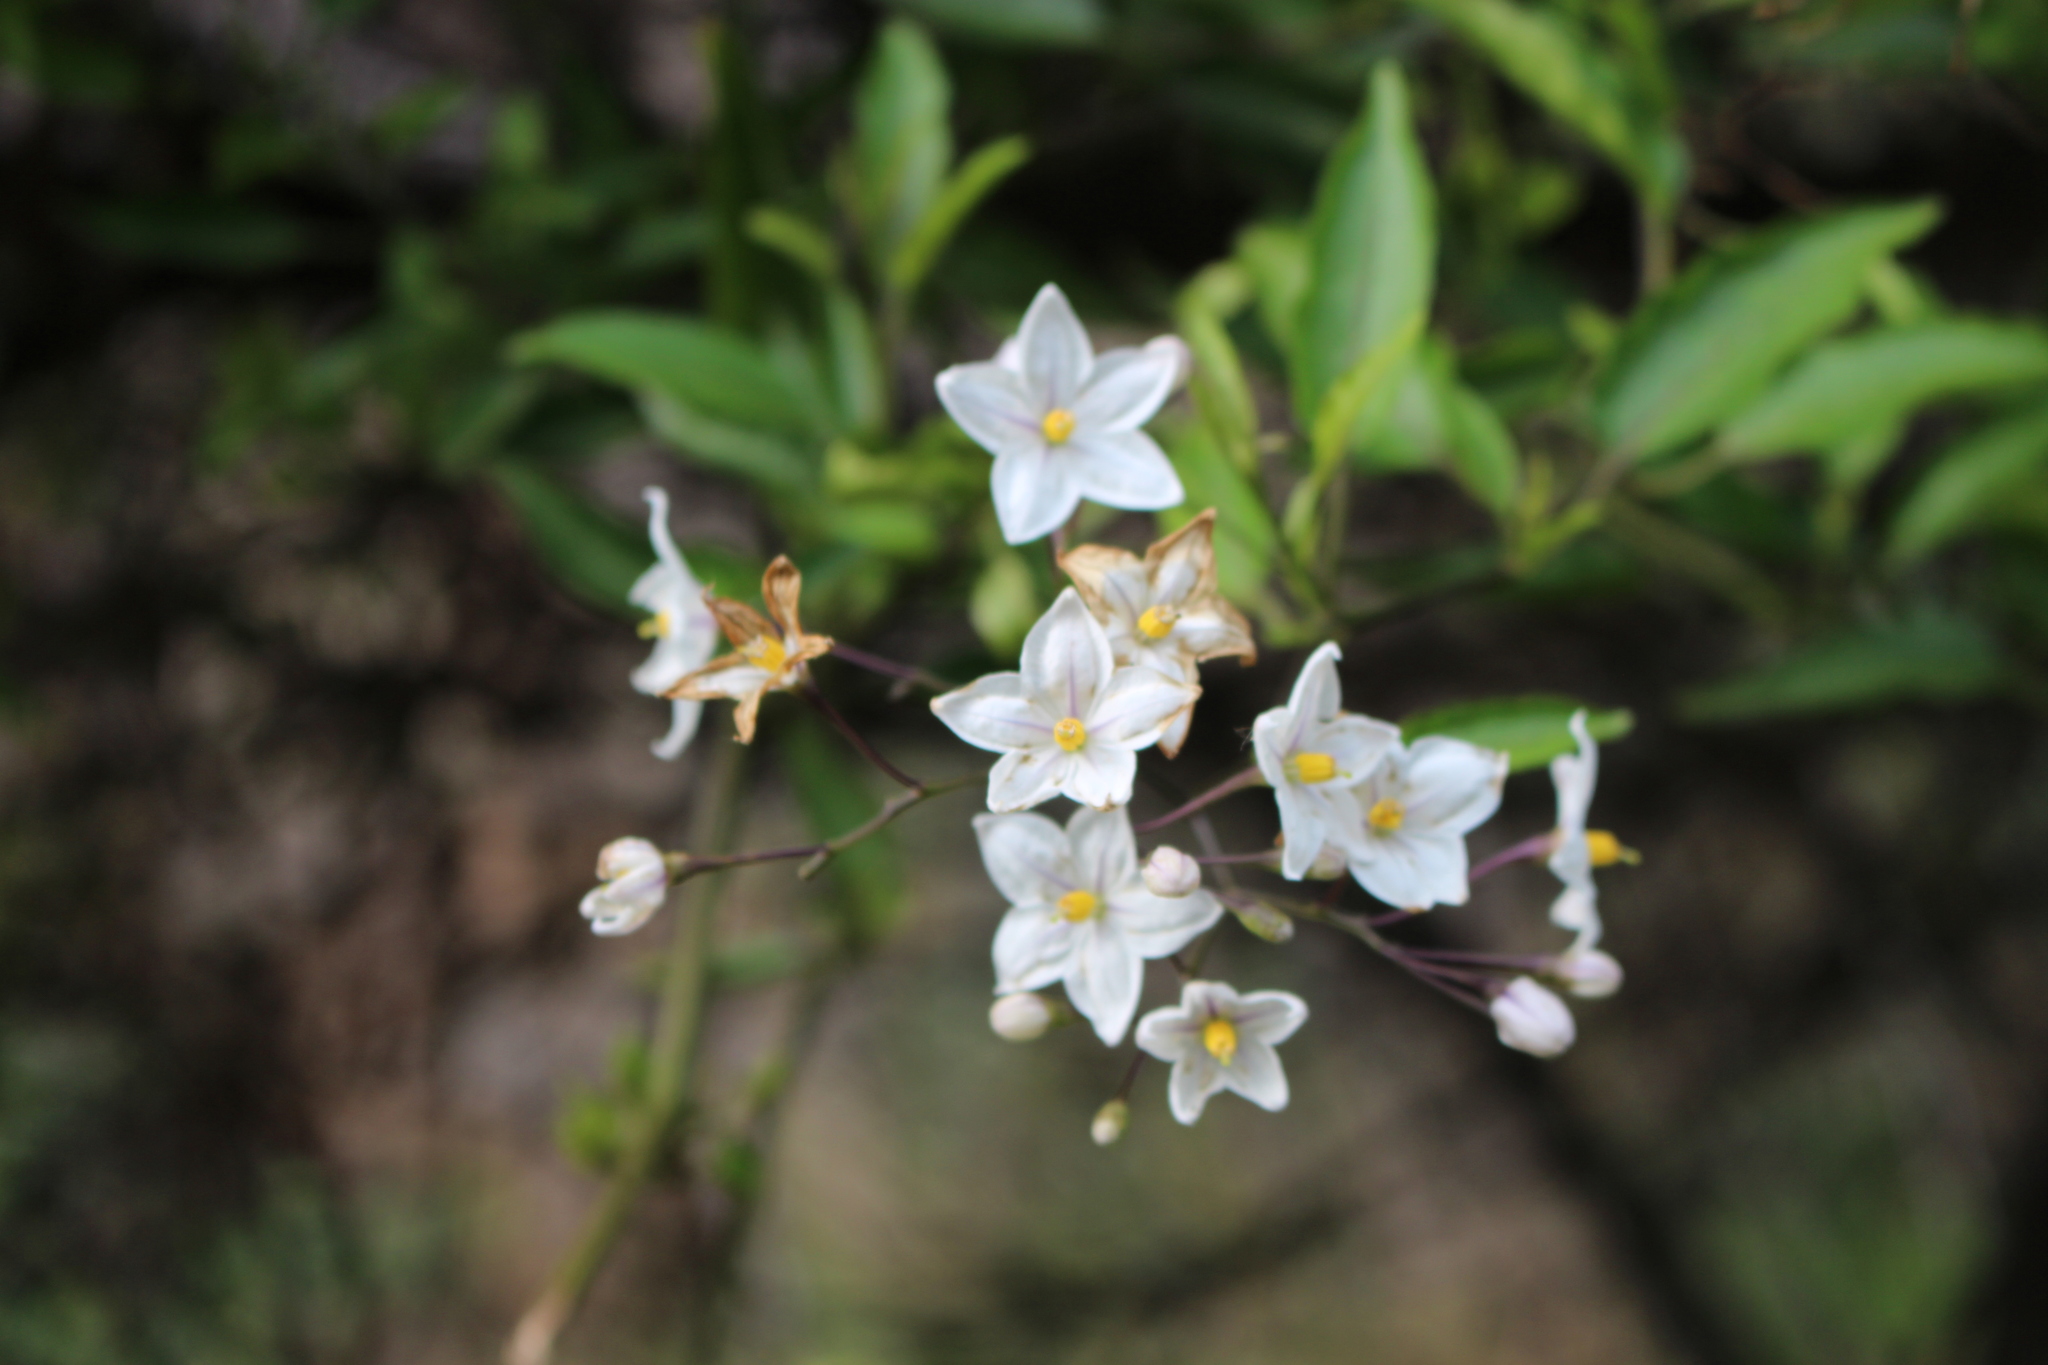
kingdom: Plantae
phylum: Tracheophyta
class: Magnoliopsida
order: Solanales
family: Solanaceae
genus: Solanum
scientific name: Solanum laxum
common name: Nightshade
